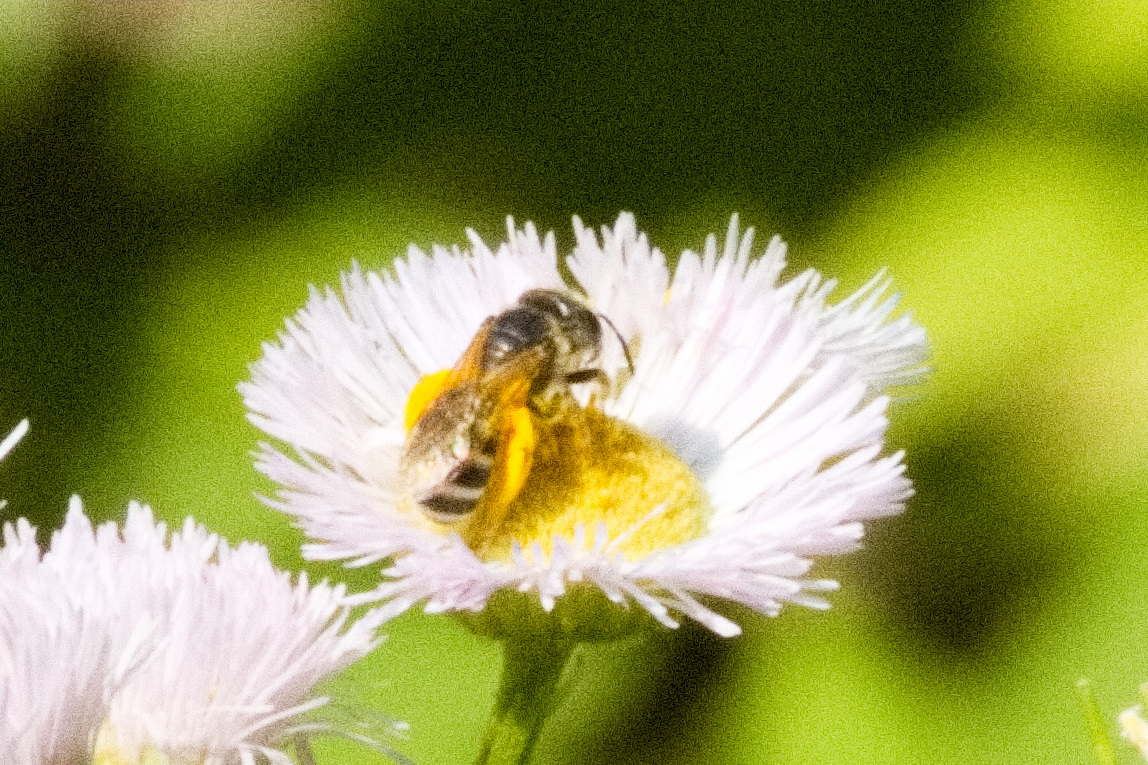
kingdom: Animalia
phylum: Arthropoda
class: Insecta
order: Hymenoptera
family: Halictidae
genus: Halictus
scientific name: Halictus ligatus
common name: Ligated furrow bee
